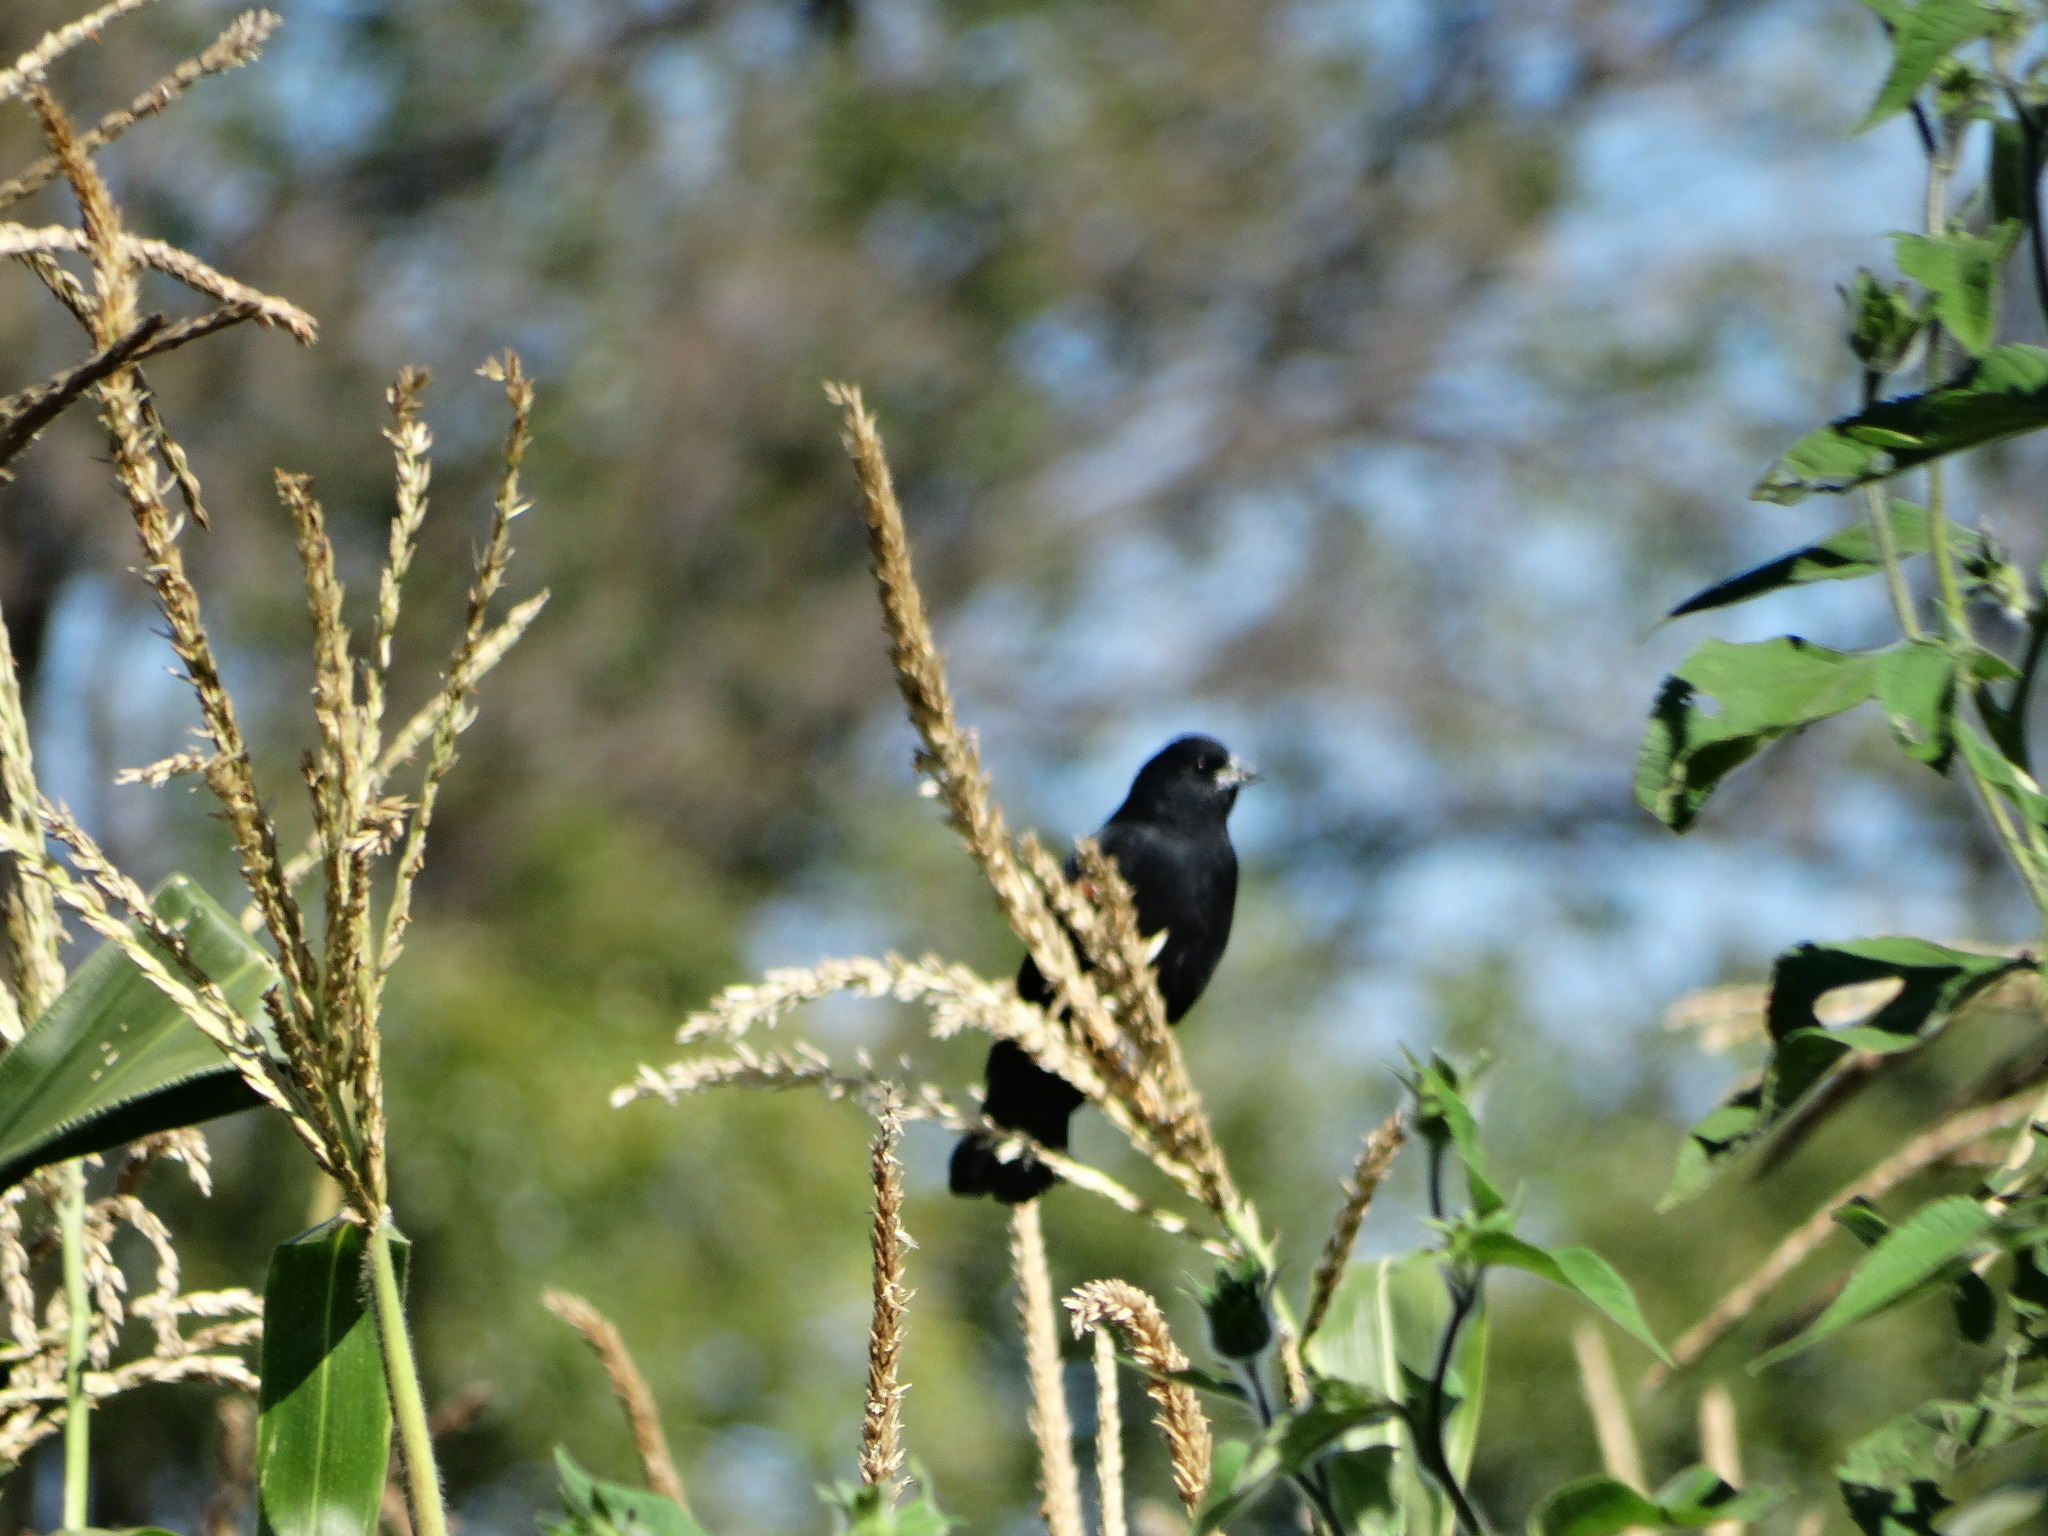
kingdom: Animalia
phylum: Chordata
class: Aves
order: Passeriformes
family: Icteridae
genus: Agelaius
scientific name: Agelaius phoeniceus
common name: Red-winged blackbird
